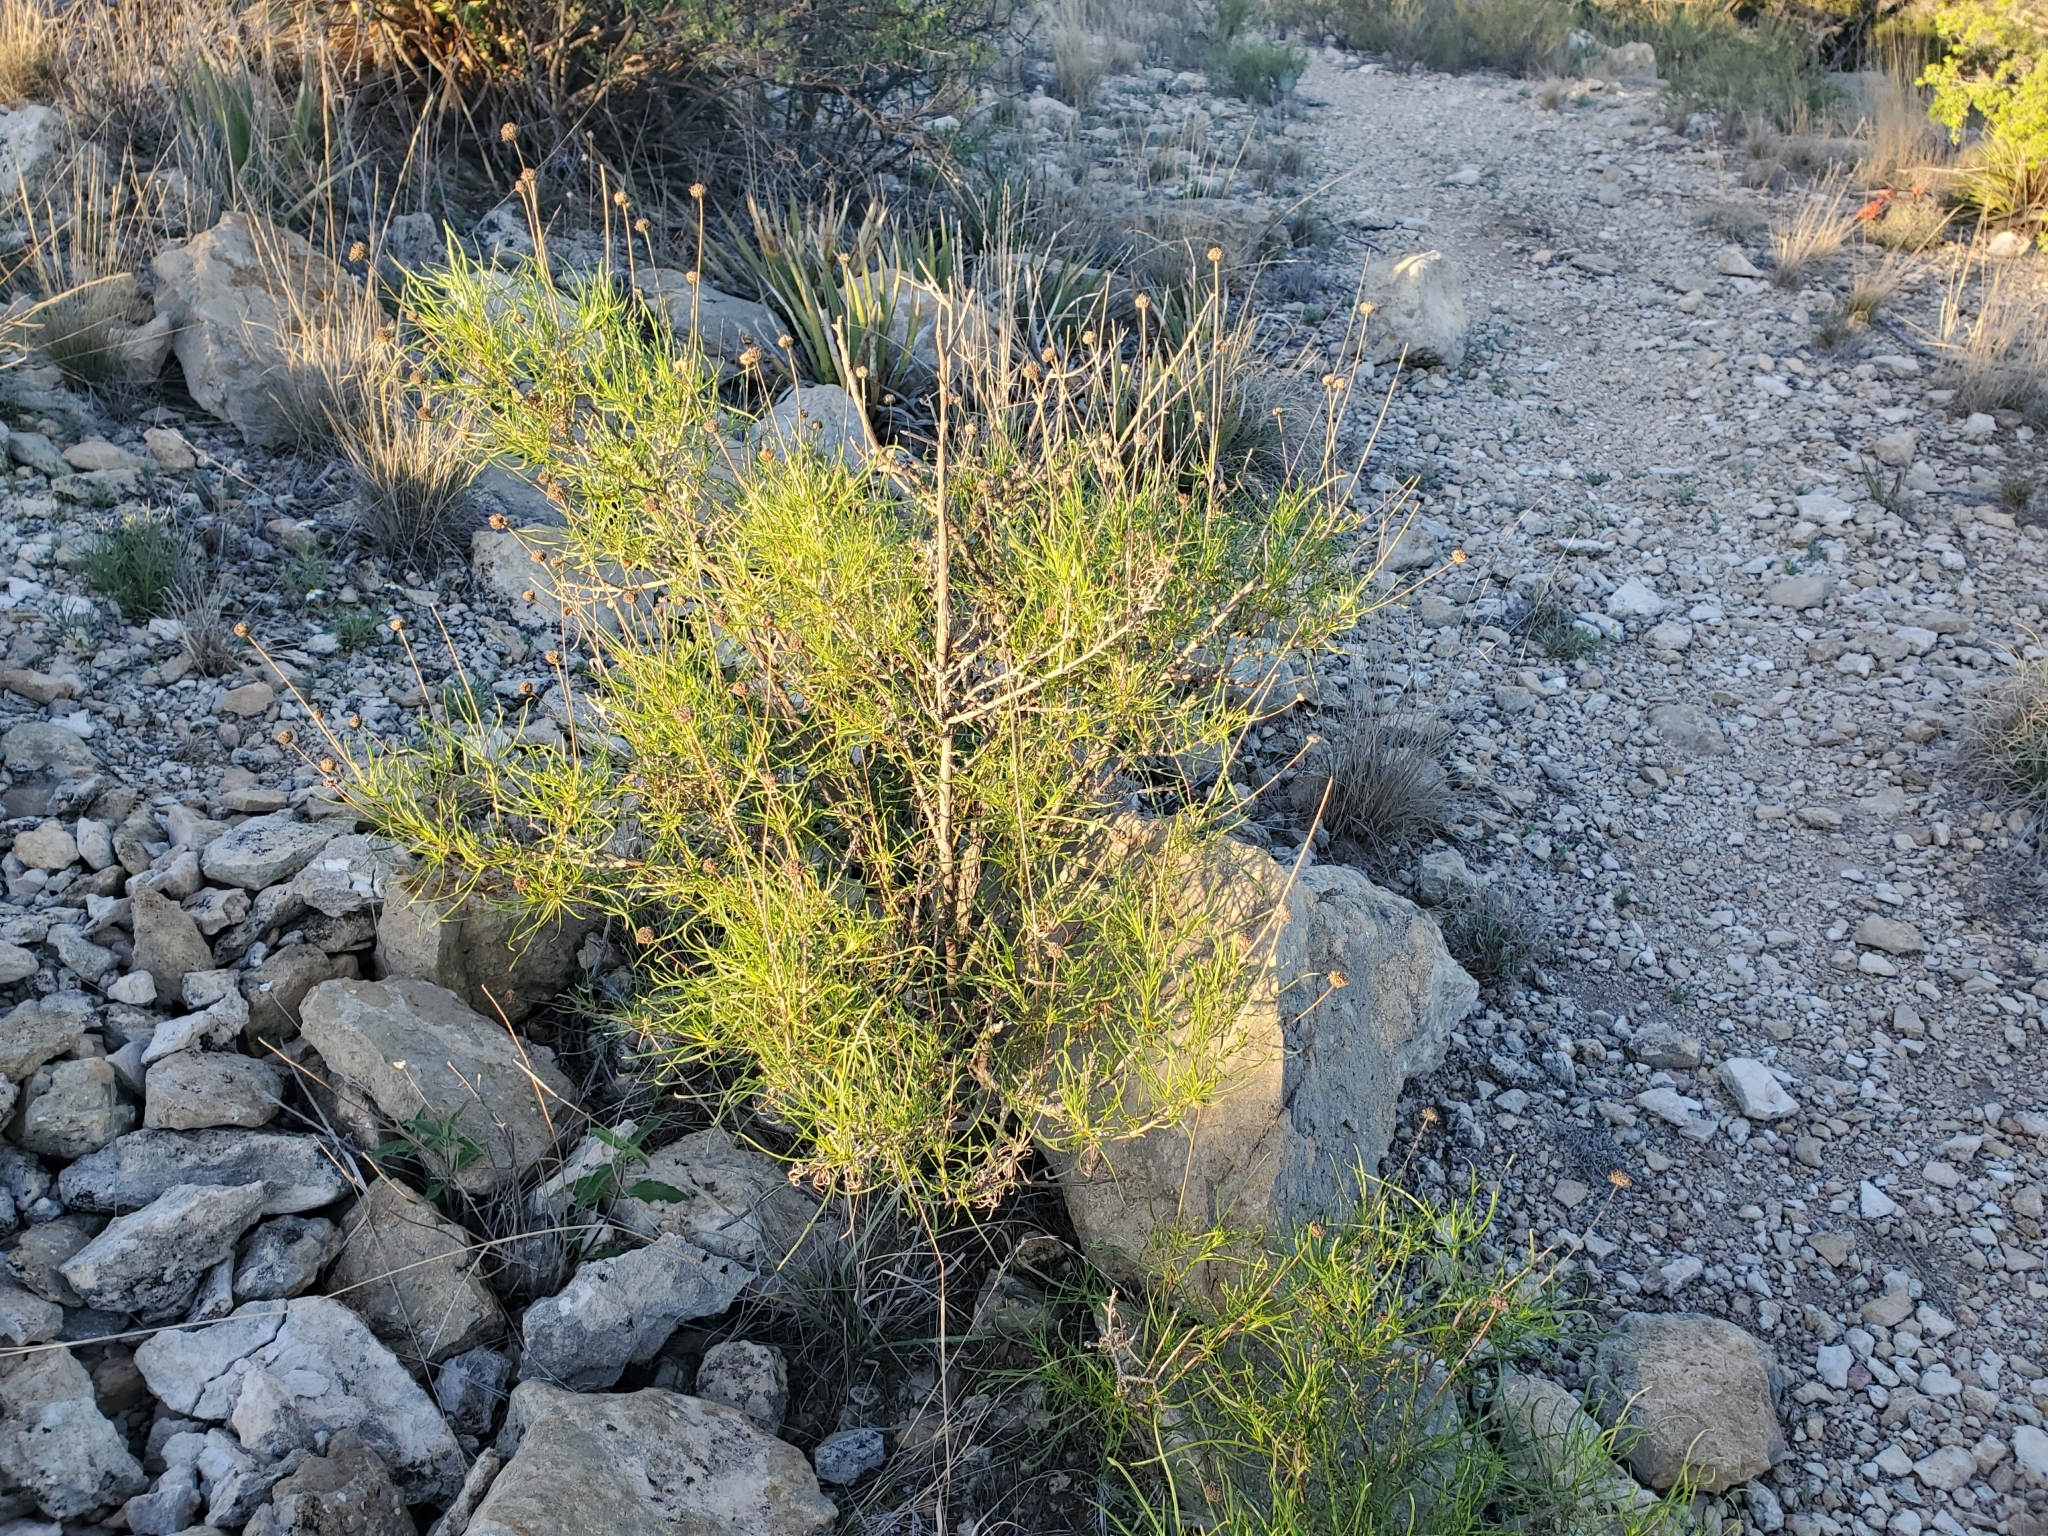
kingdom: Plantae
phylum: Tracheophyta
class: Magnoliopsida
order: Asterales
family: Asteraceae
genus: Sidneya
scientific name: Sidneya tenuifolia
